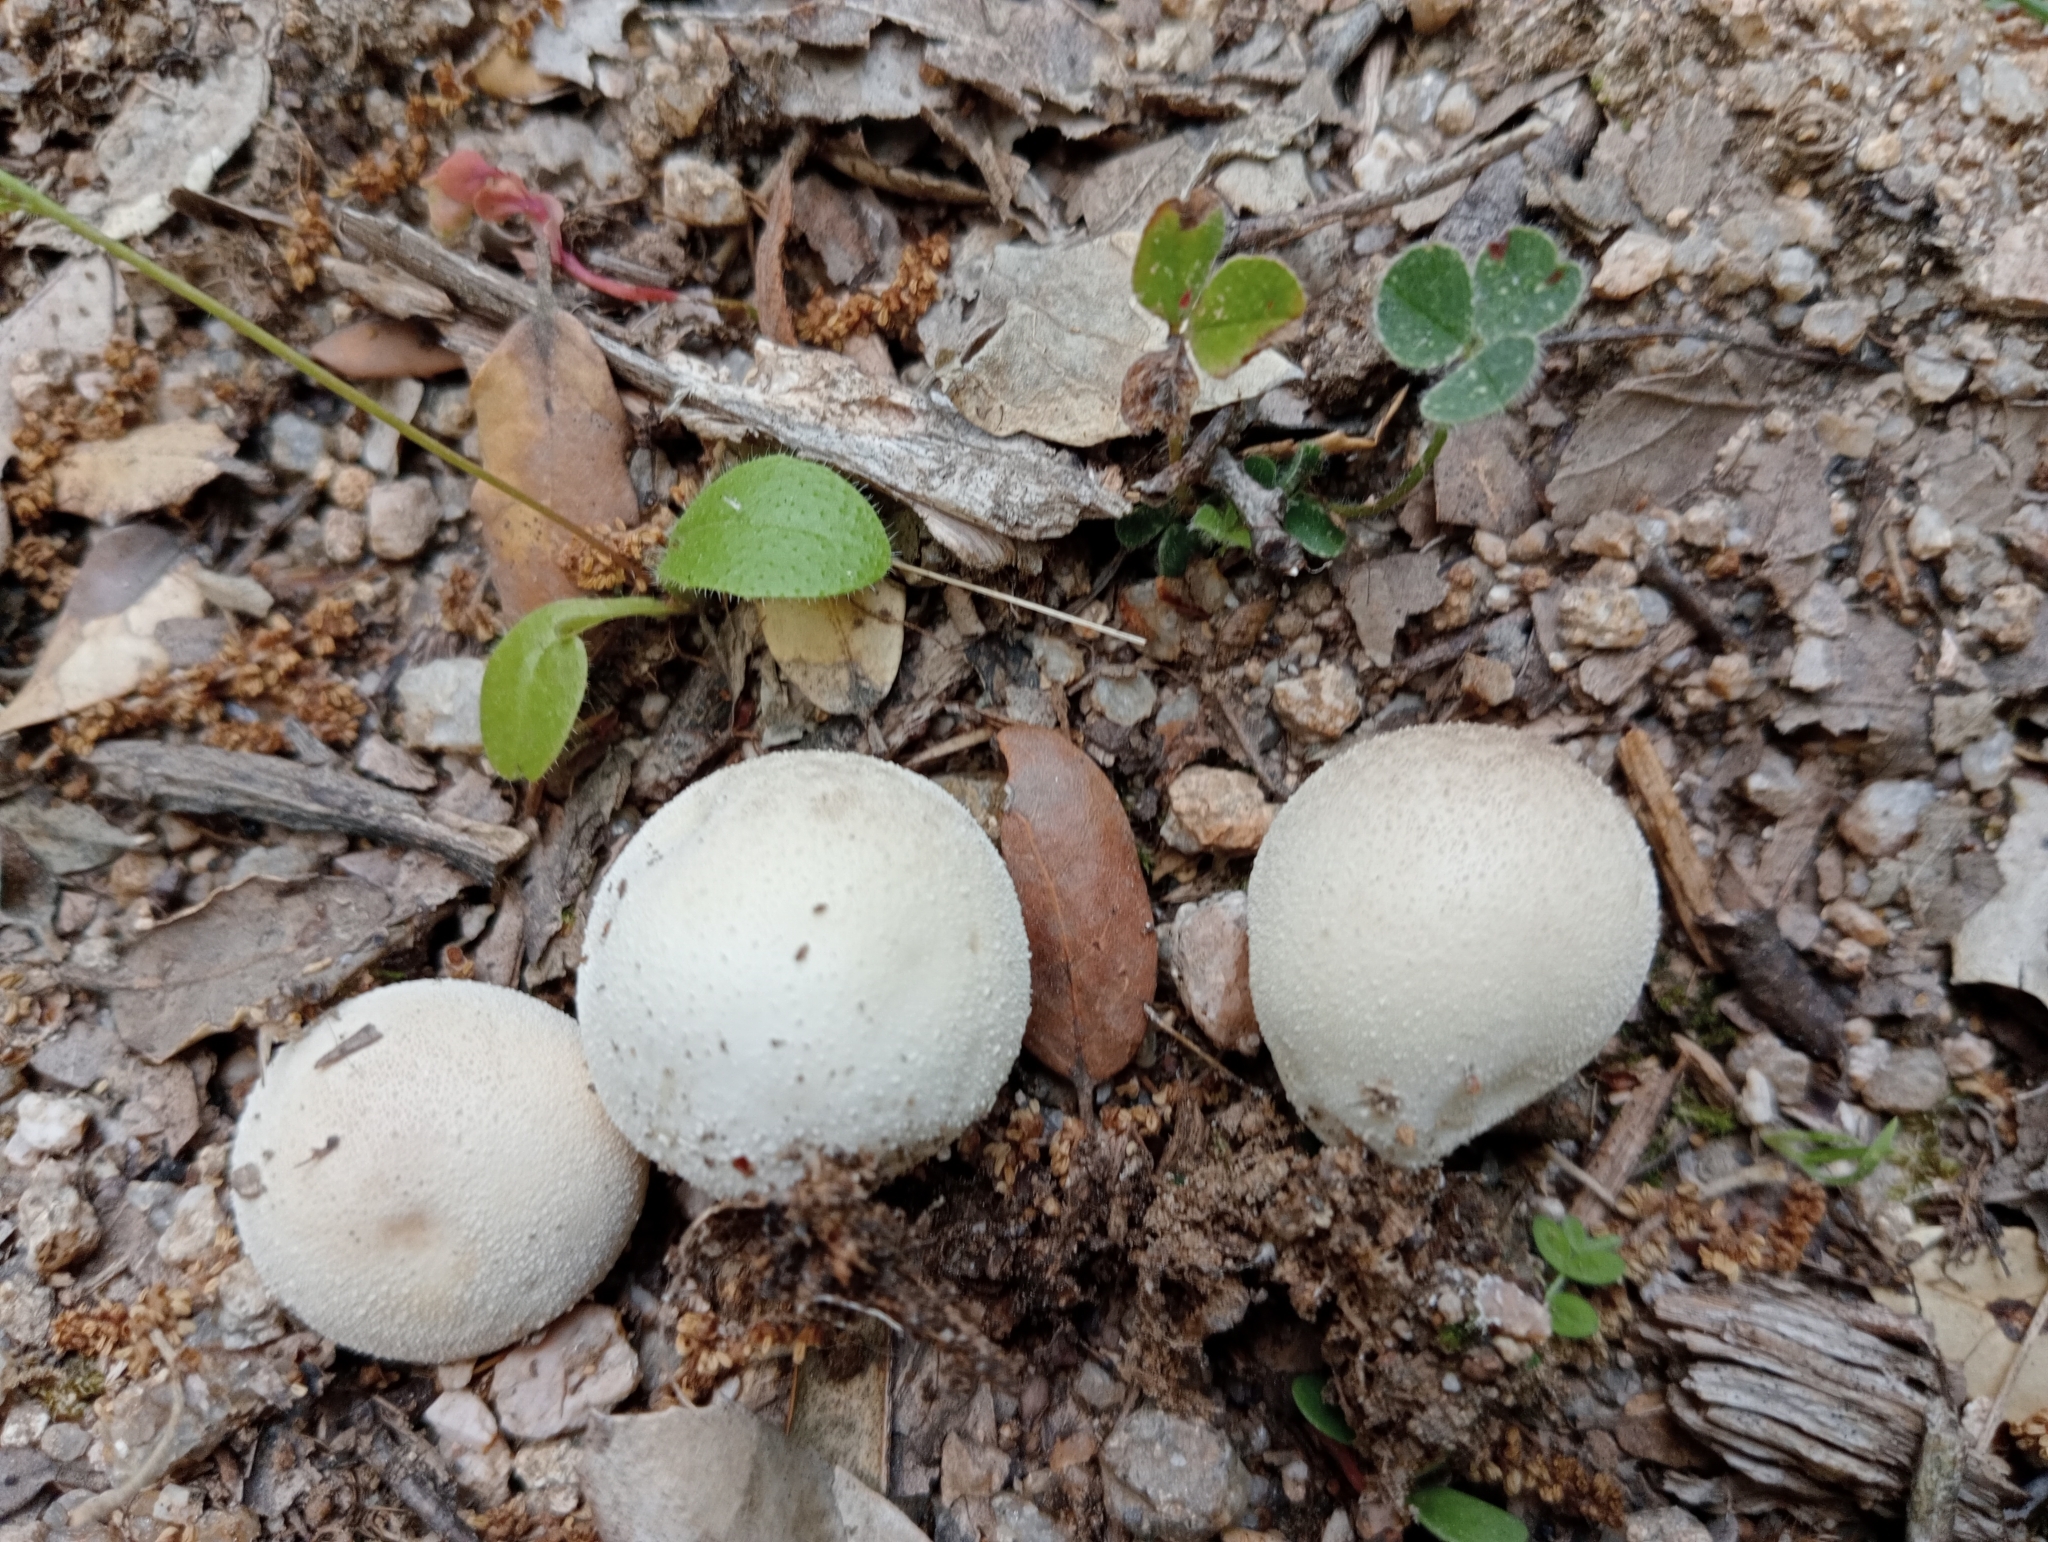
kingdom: Fungi
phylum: Basidiomycota
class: Agaricomycetes
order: Agaricales
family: Lycoperdaceae
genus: Bovista
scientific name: Bovista aestivalis
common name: Deceiving bovist
